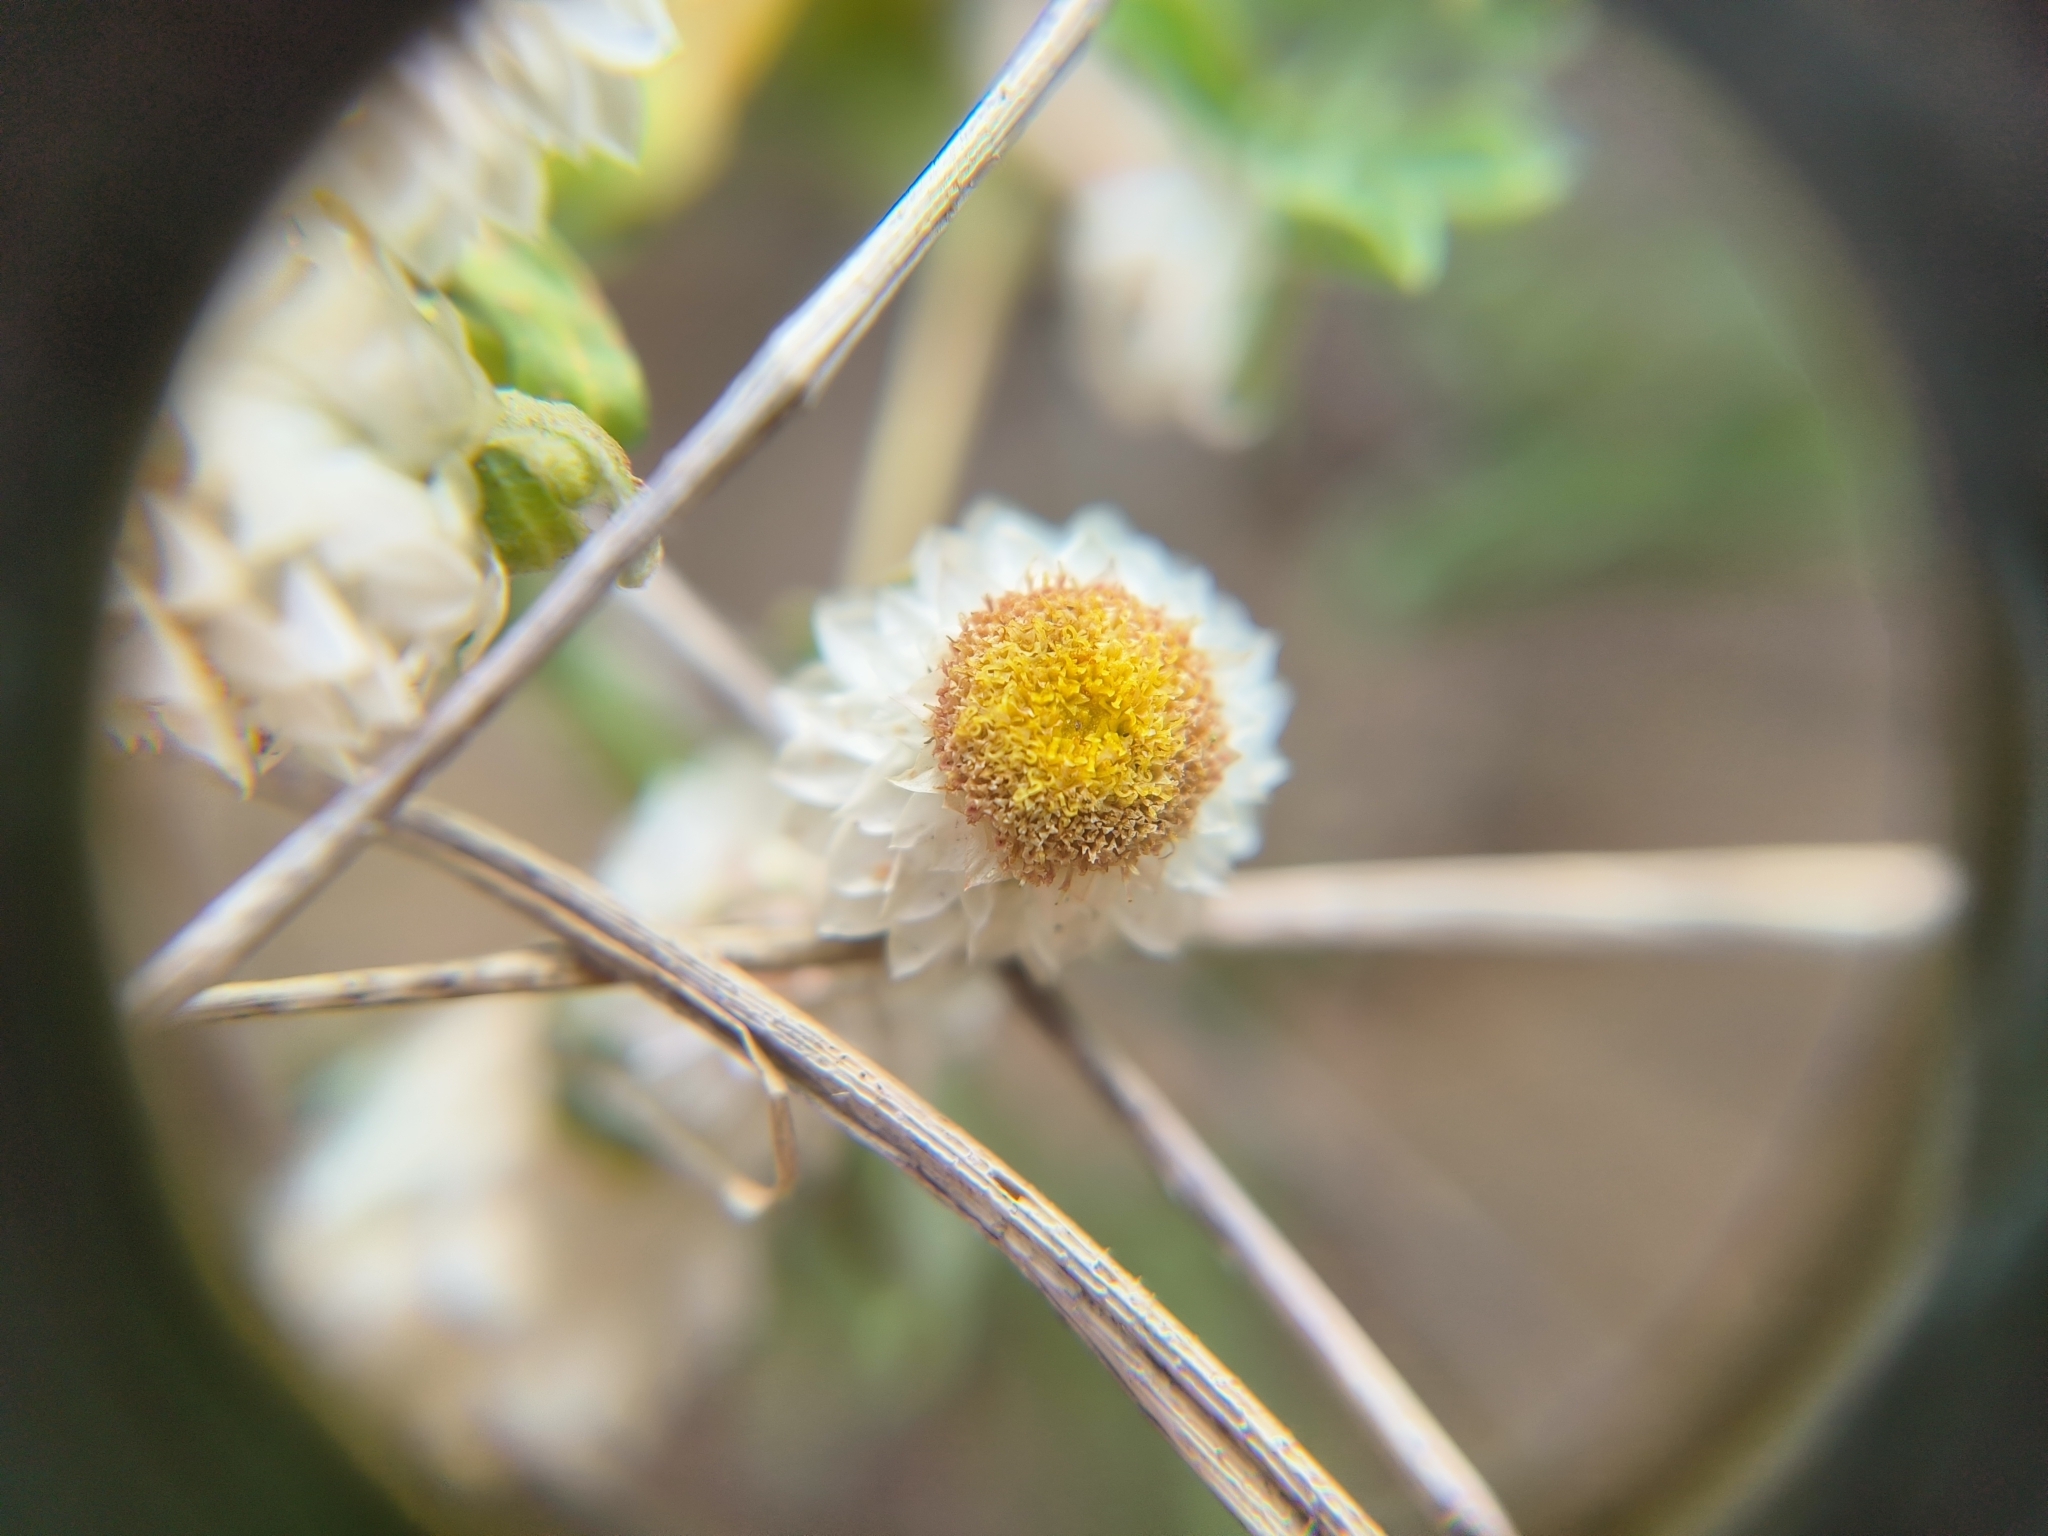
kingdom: Plantae
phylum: Tracheophyta
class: Magnoliopsida
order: Asterales
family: Asteraceae
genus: Helichrysum
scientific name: Helichrysum argyrosphaerum
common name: Wild everlasting
